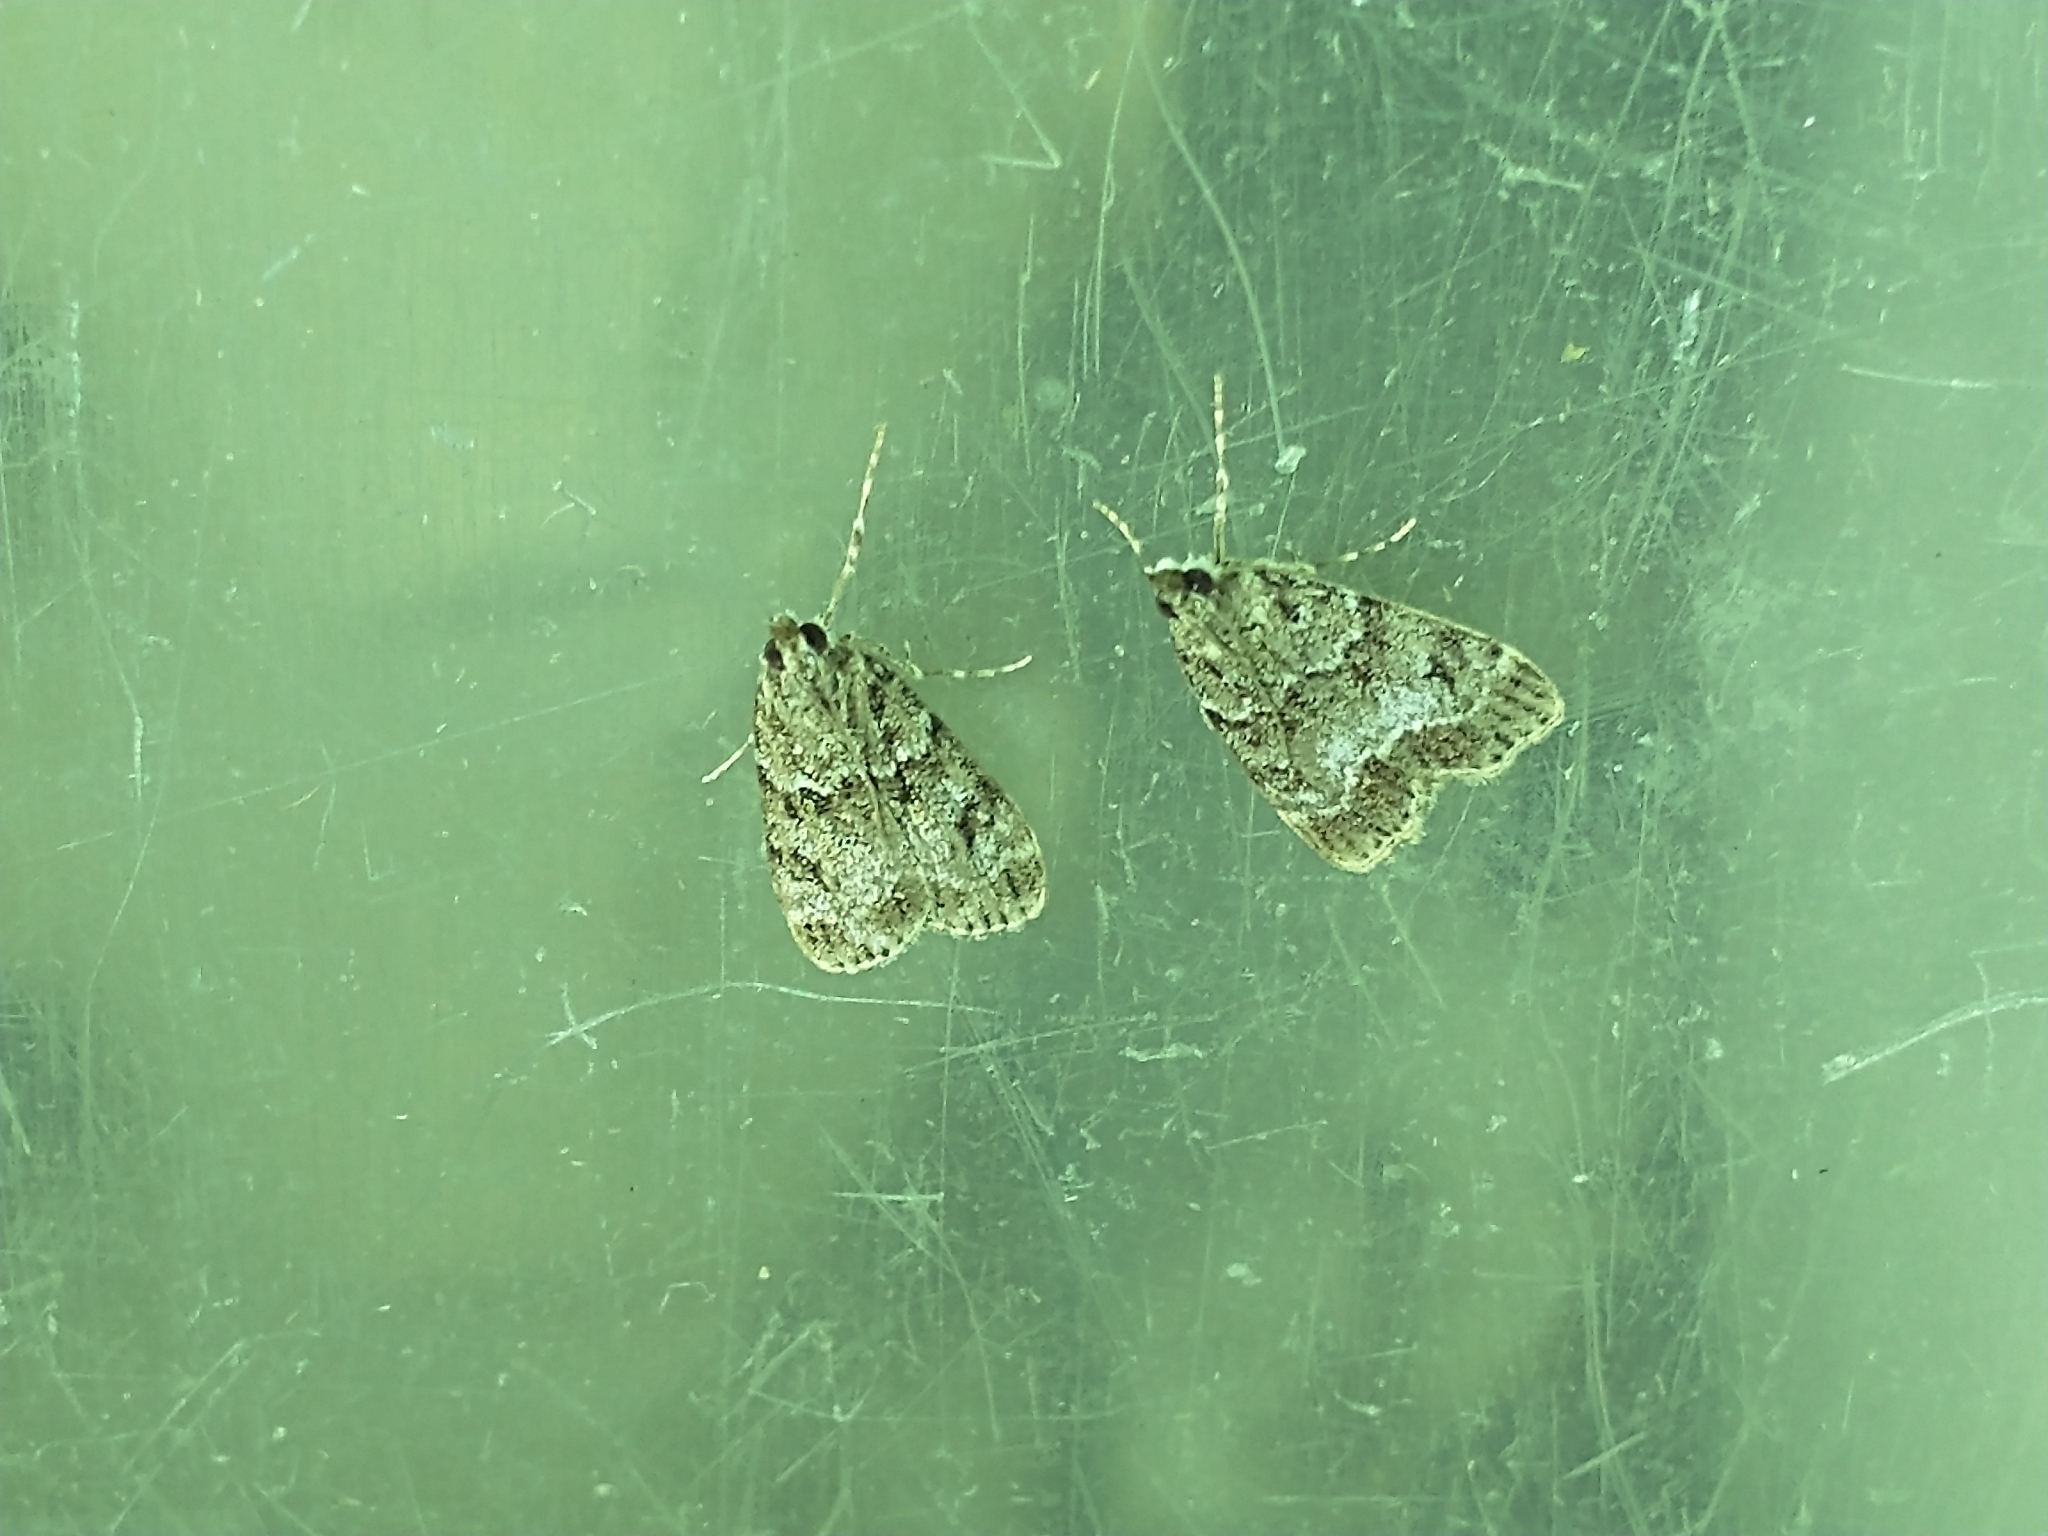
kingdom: Animalia
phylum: Arthropoda
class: Insecta
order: Lepidoptera
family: Crambidae
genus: Eudonia
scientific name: Eudonia mercurella
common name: Small grey
